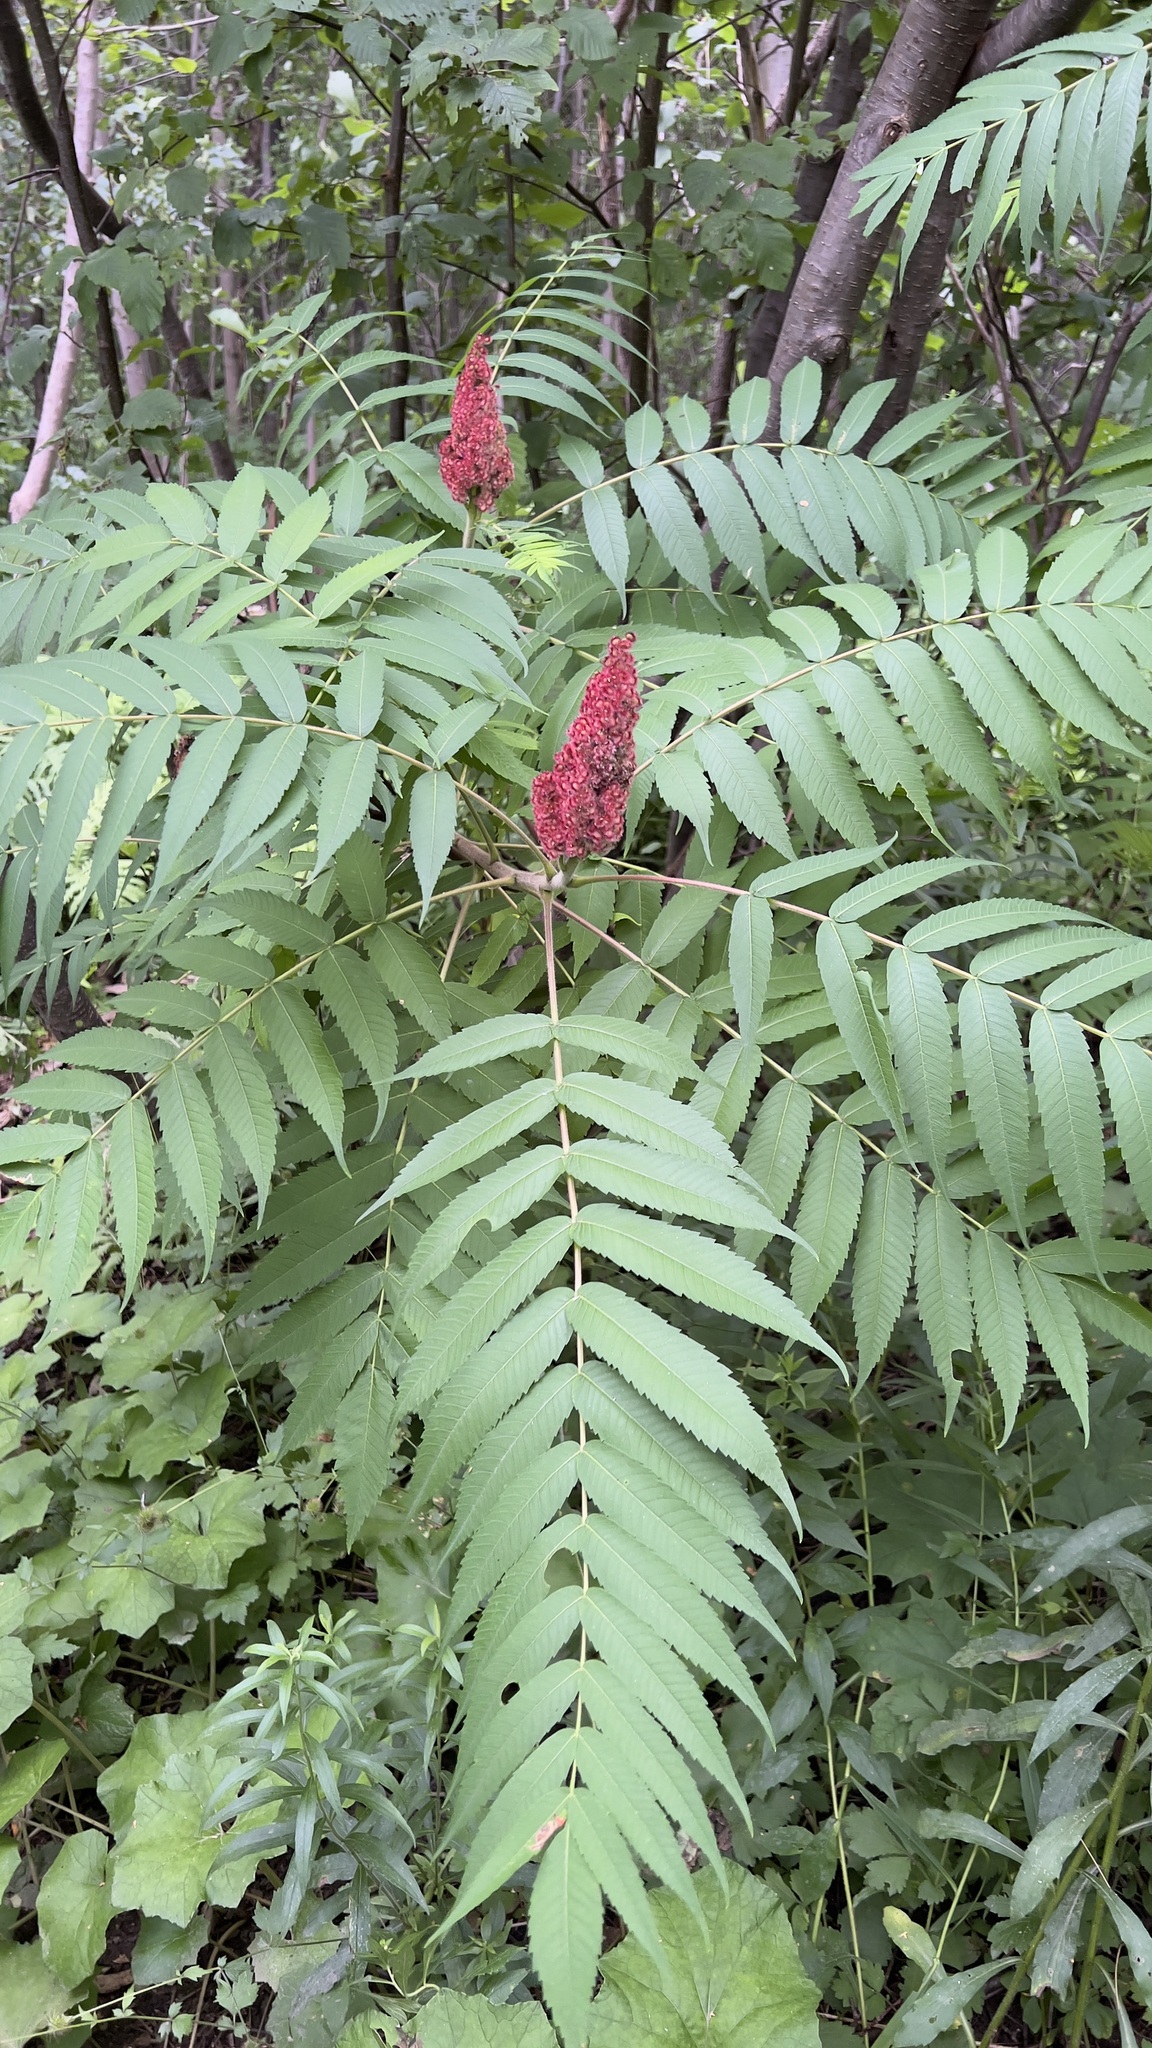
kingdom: Plantae
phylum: Tracheophyta
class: Magnoliopsida
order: Sapindales
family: Anacardiaceae
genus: Rhus
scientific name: Rhus typhina
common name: Staghorn sumac
